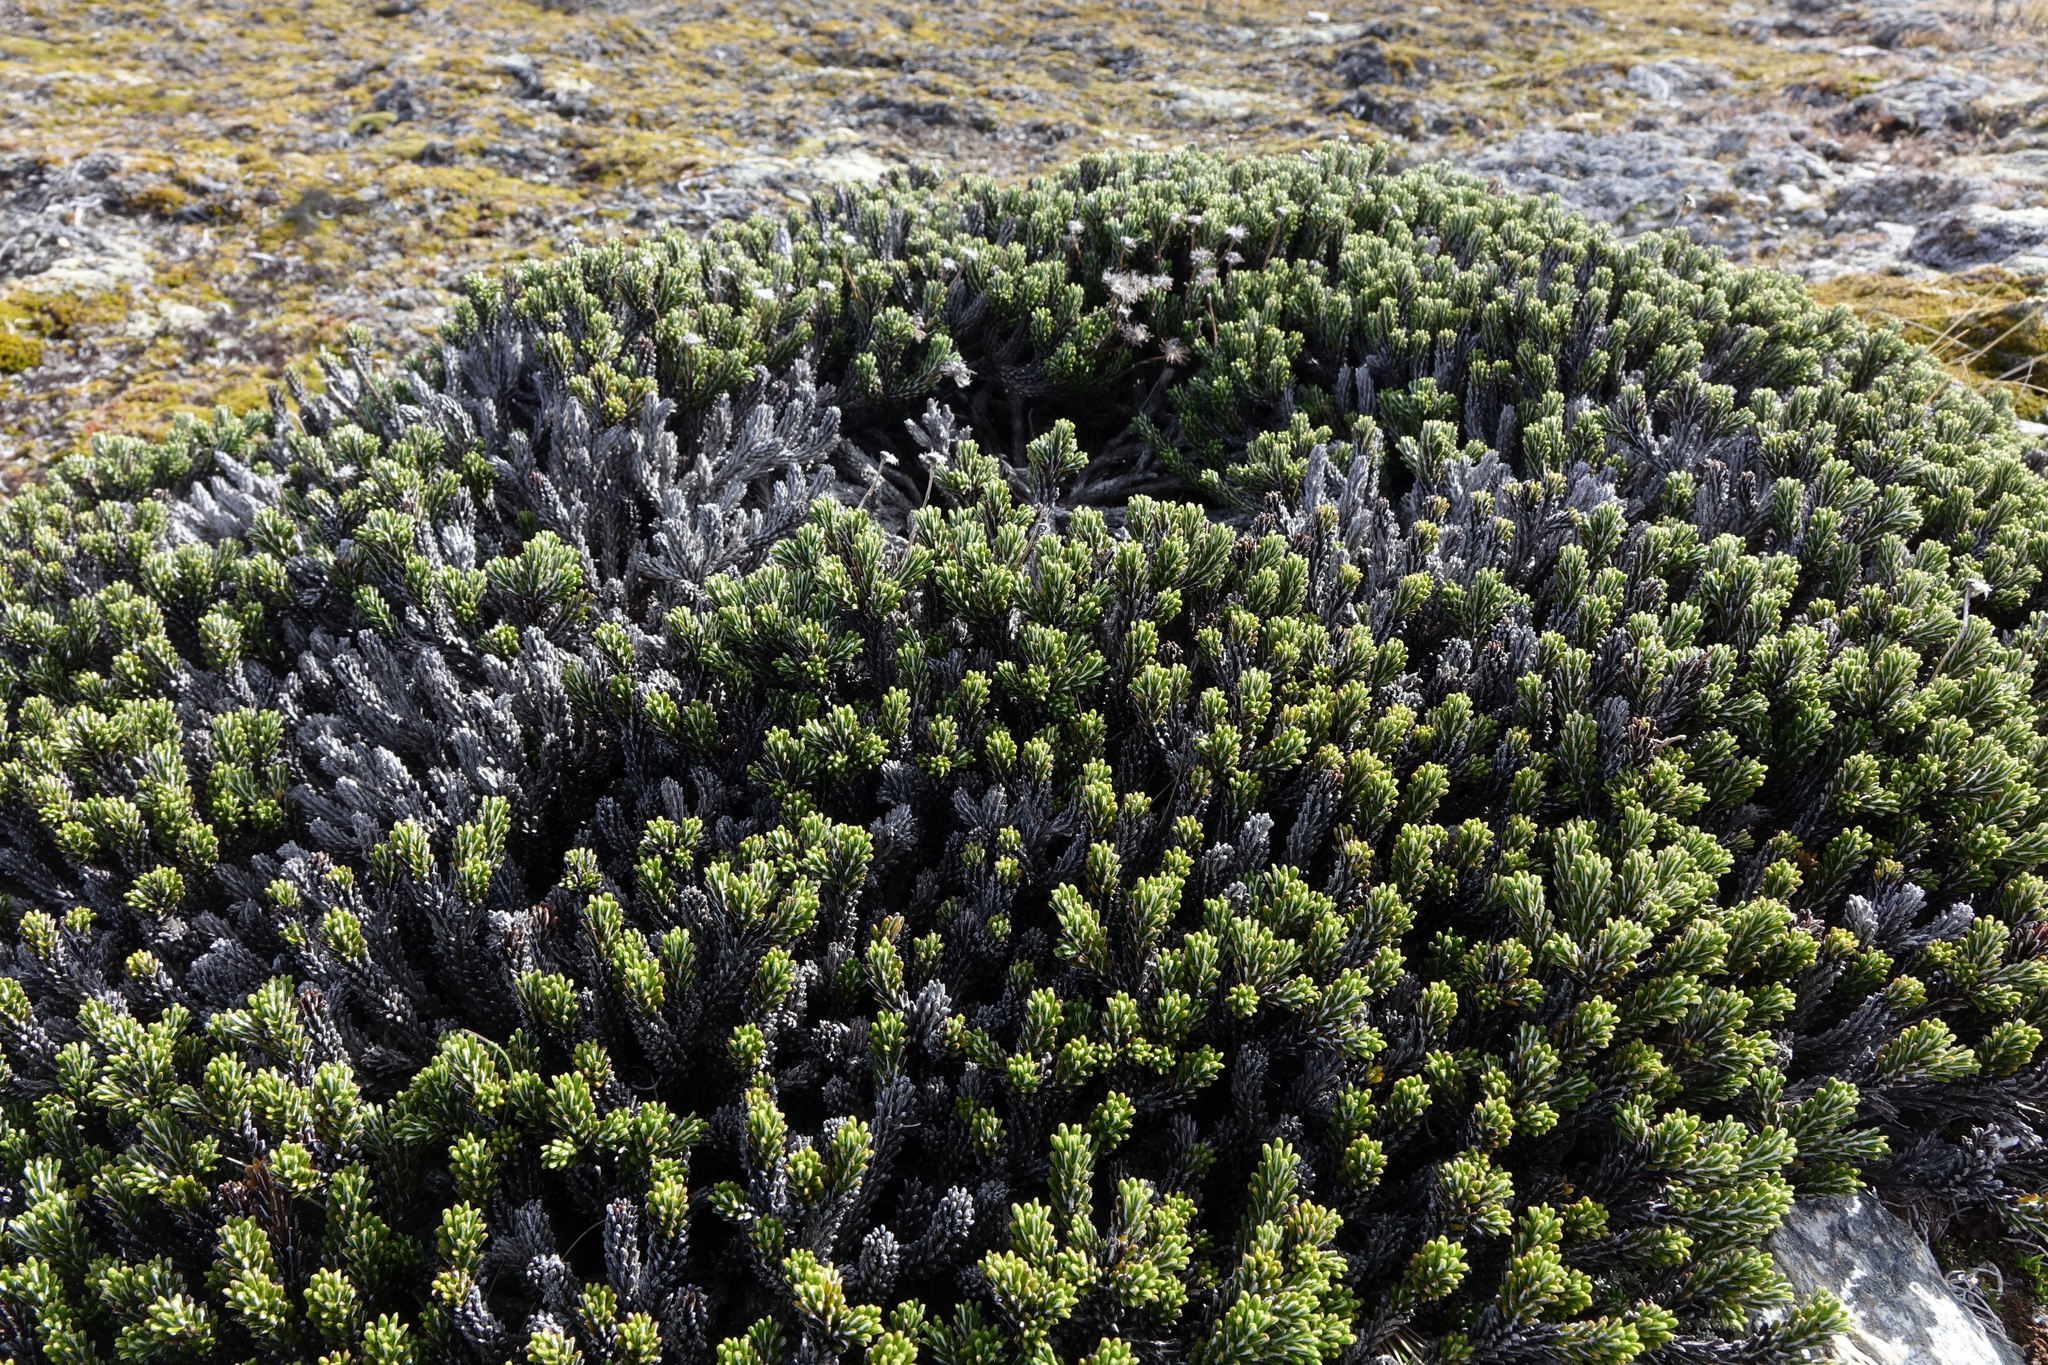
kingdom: Plantae
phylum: Tracheophyta
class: Magnoliopsida
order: Asterales
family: Asteraceae
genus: Celmisia
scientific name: Celmisia ramulosa
